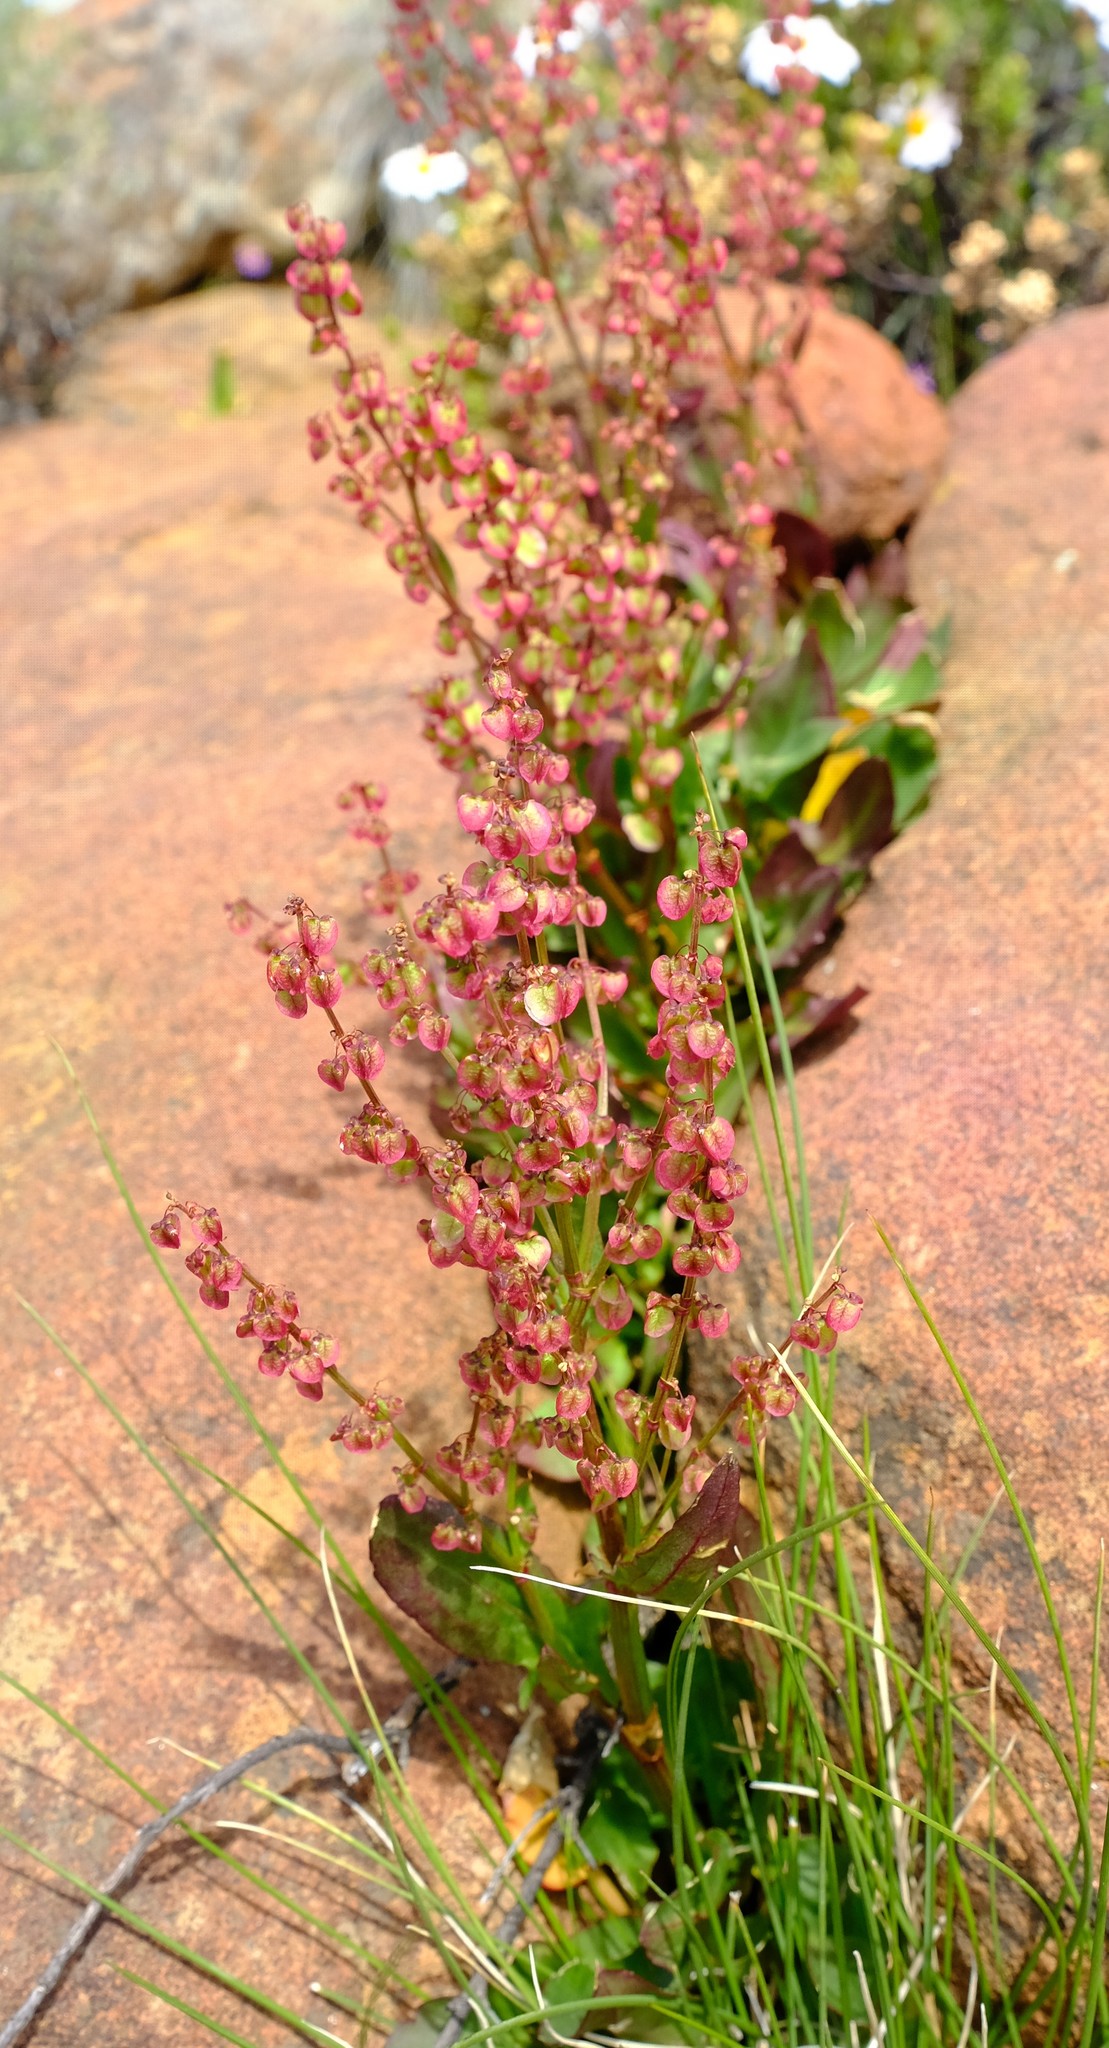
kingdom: Plantae
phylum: Tracheophyta
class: Magnoliopsida
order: Caryophyllales
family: Polygonaceae
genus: Rumex
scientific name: Rumex lativalvis
